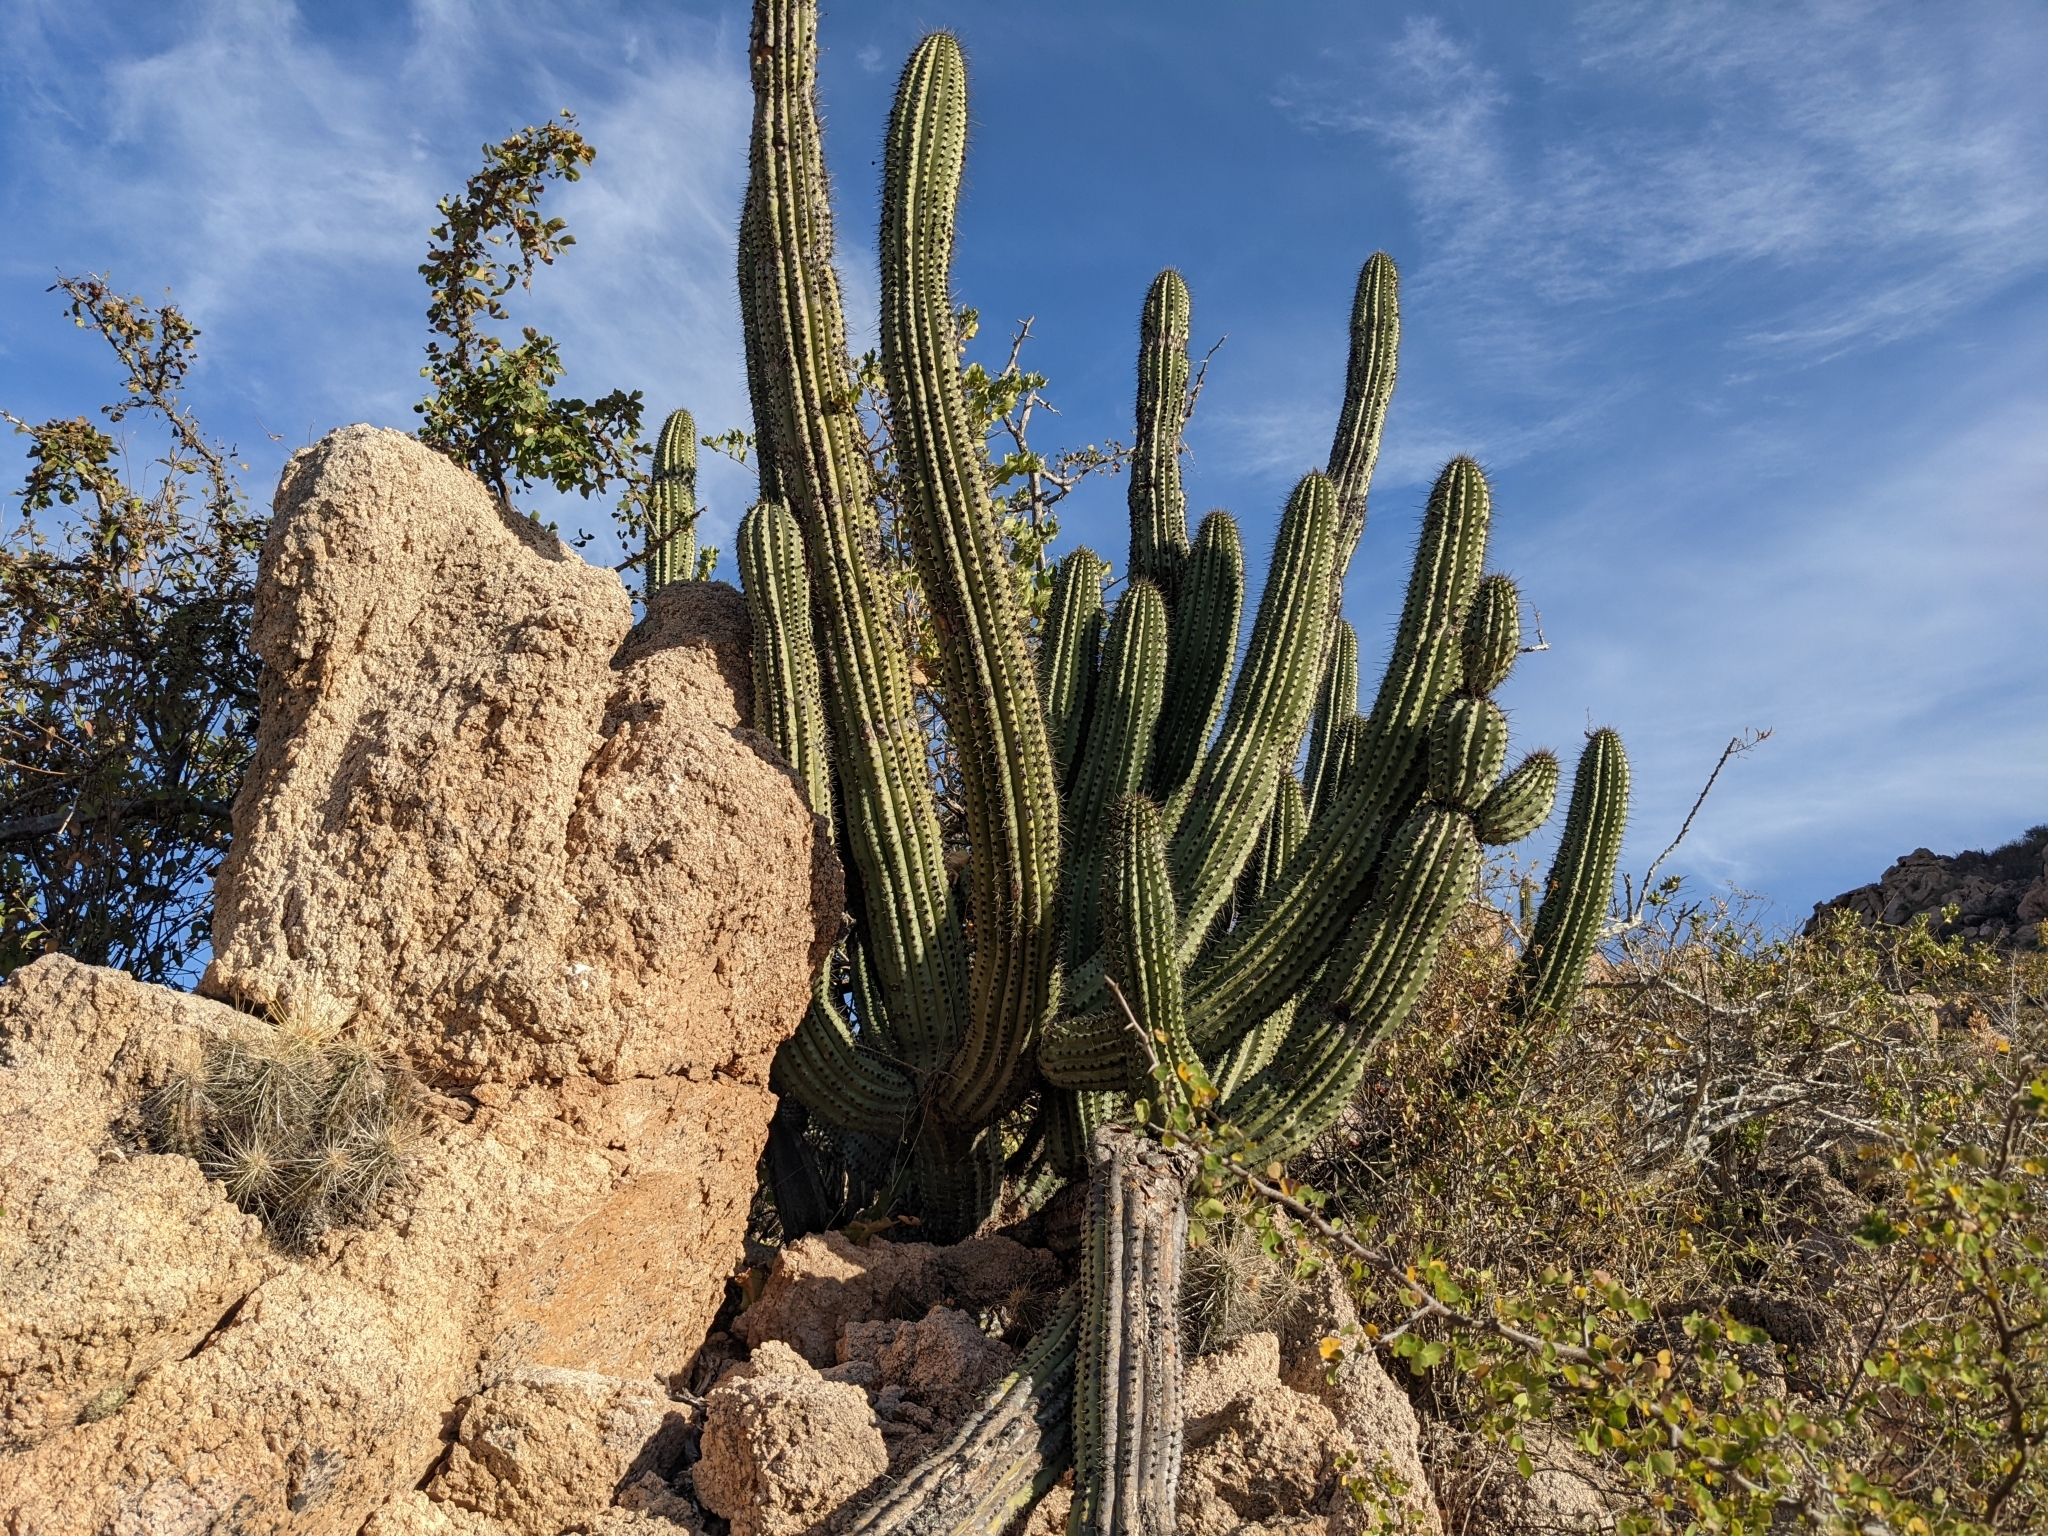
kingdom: Plantae
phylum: Tracheophyta
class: Magnoliopsida
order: Caryophyllales
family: Cactaceae
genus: Stenocereus
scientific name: Stenocereus thurberi
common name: Organ pipe cactus
